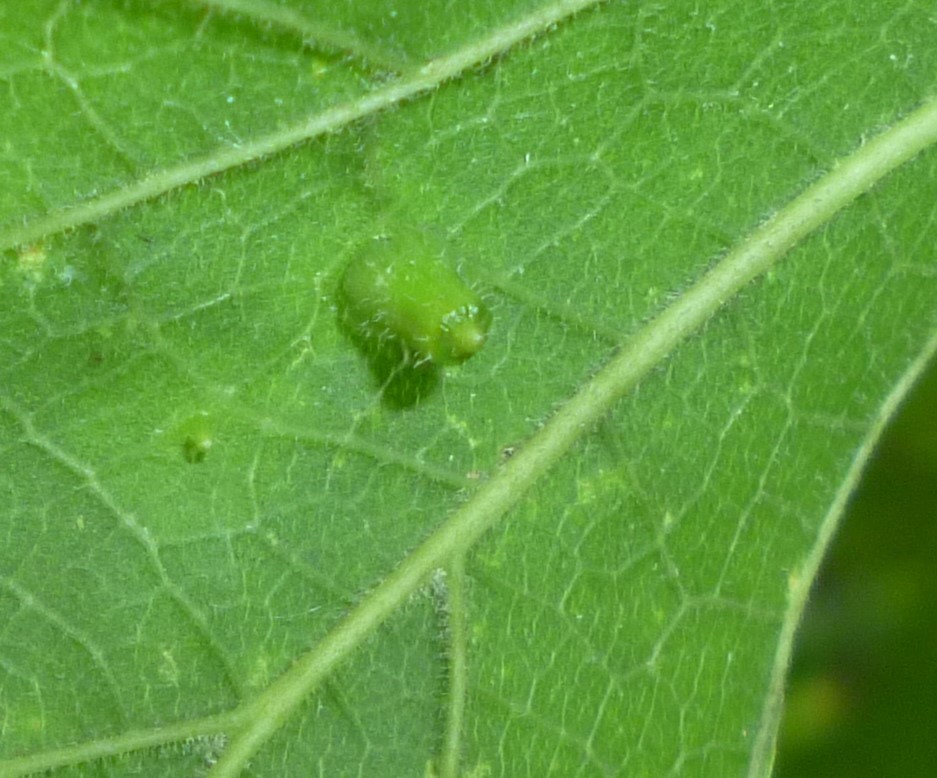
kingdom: Animalia
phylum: Arthropoda
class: Insecta
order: Diptera
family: Cecidomyiidae
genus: Celticecis
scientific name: Celticecis aciculata
